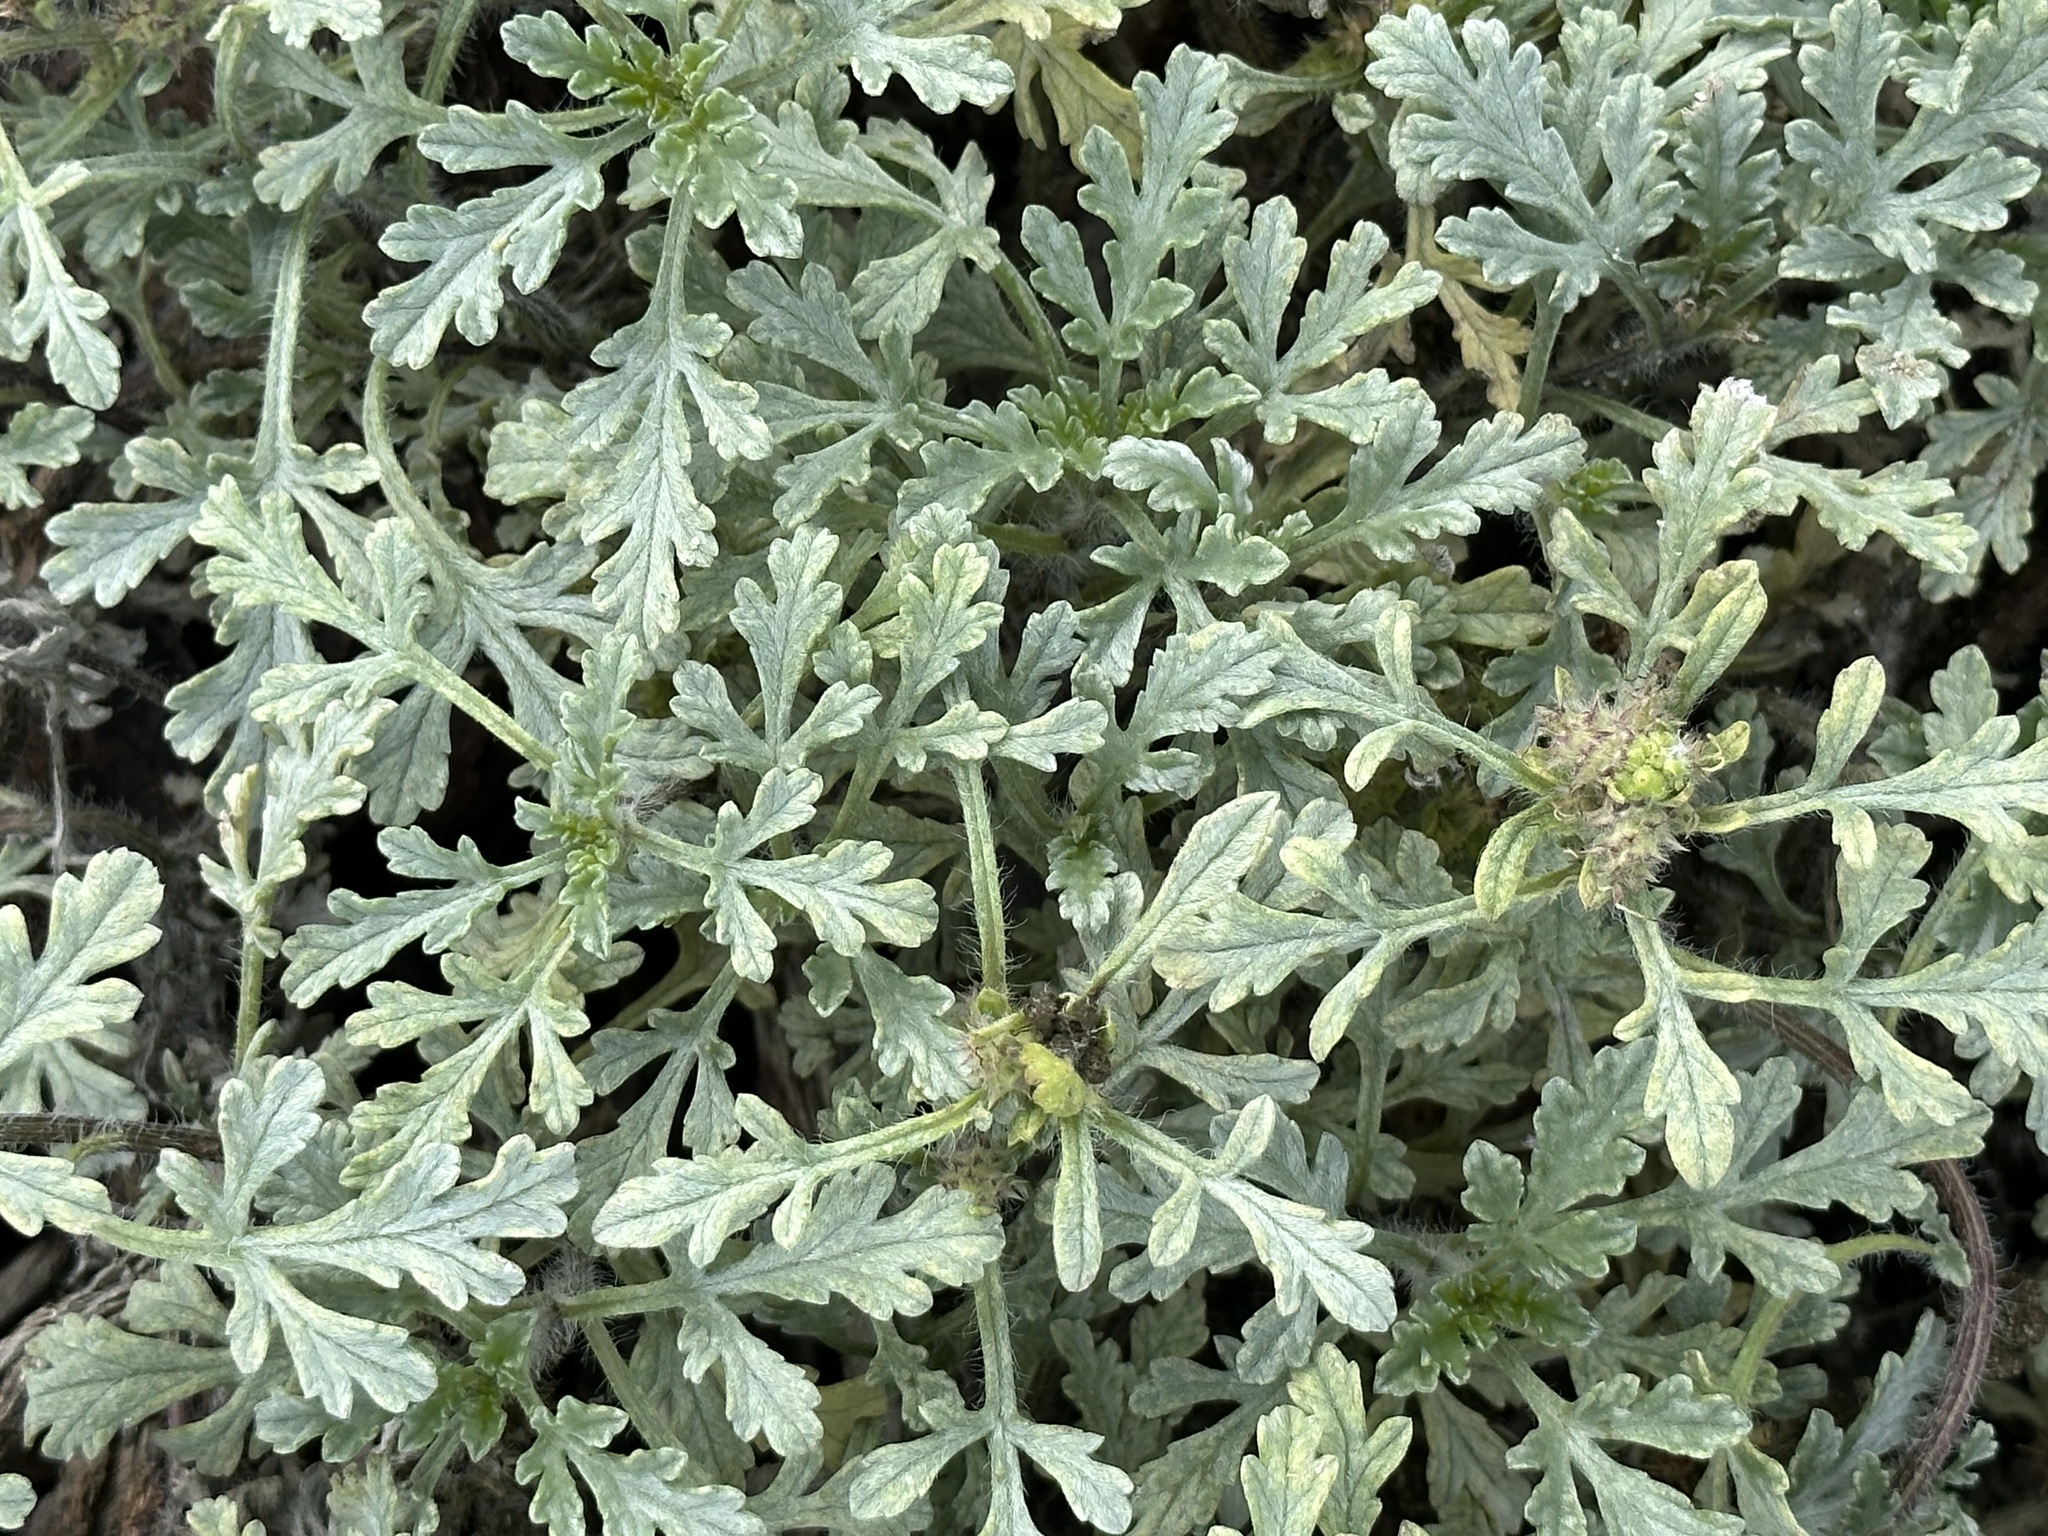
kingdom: Plantae
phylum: Tracheophyta
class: Magnoliopsida
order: Asterales
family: Asteraceae
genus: Ambrosia
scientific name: Ambrosia chamissonis
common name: Beachbur
